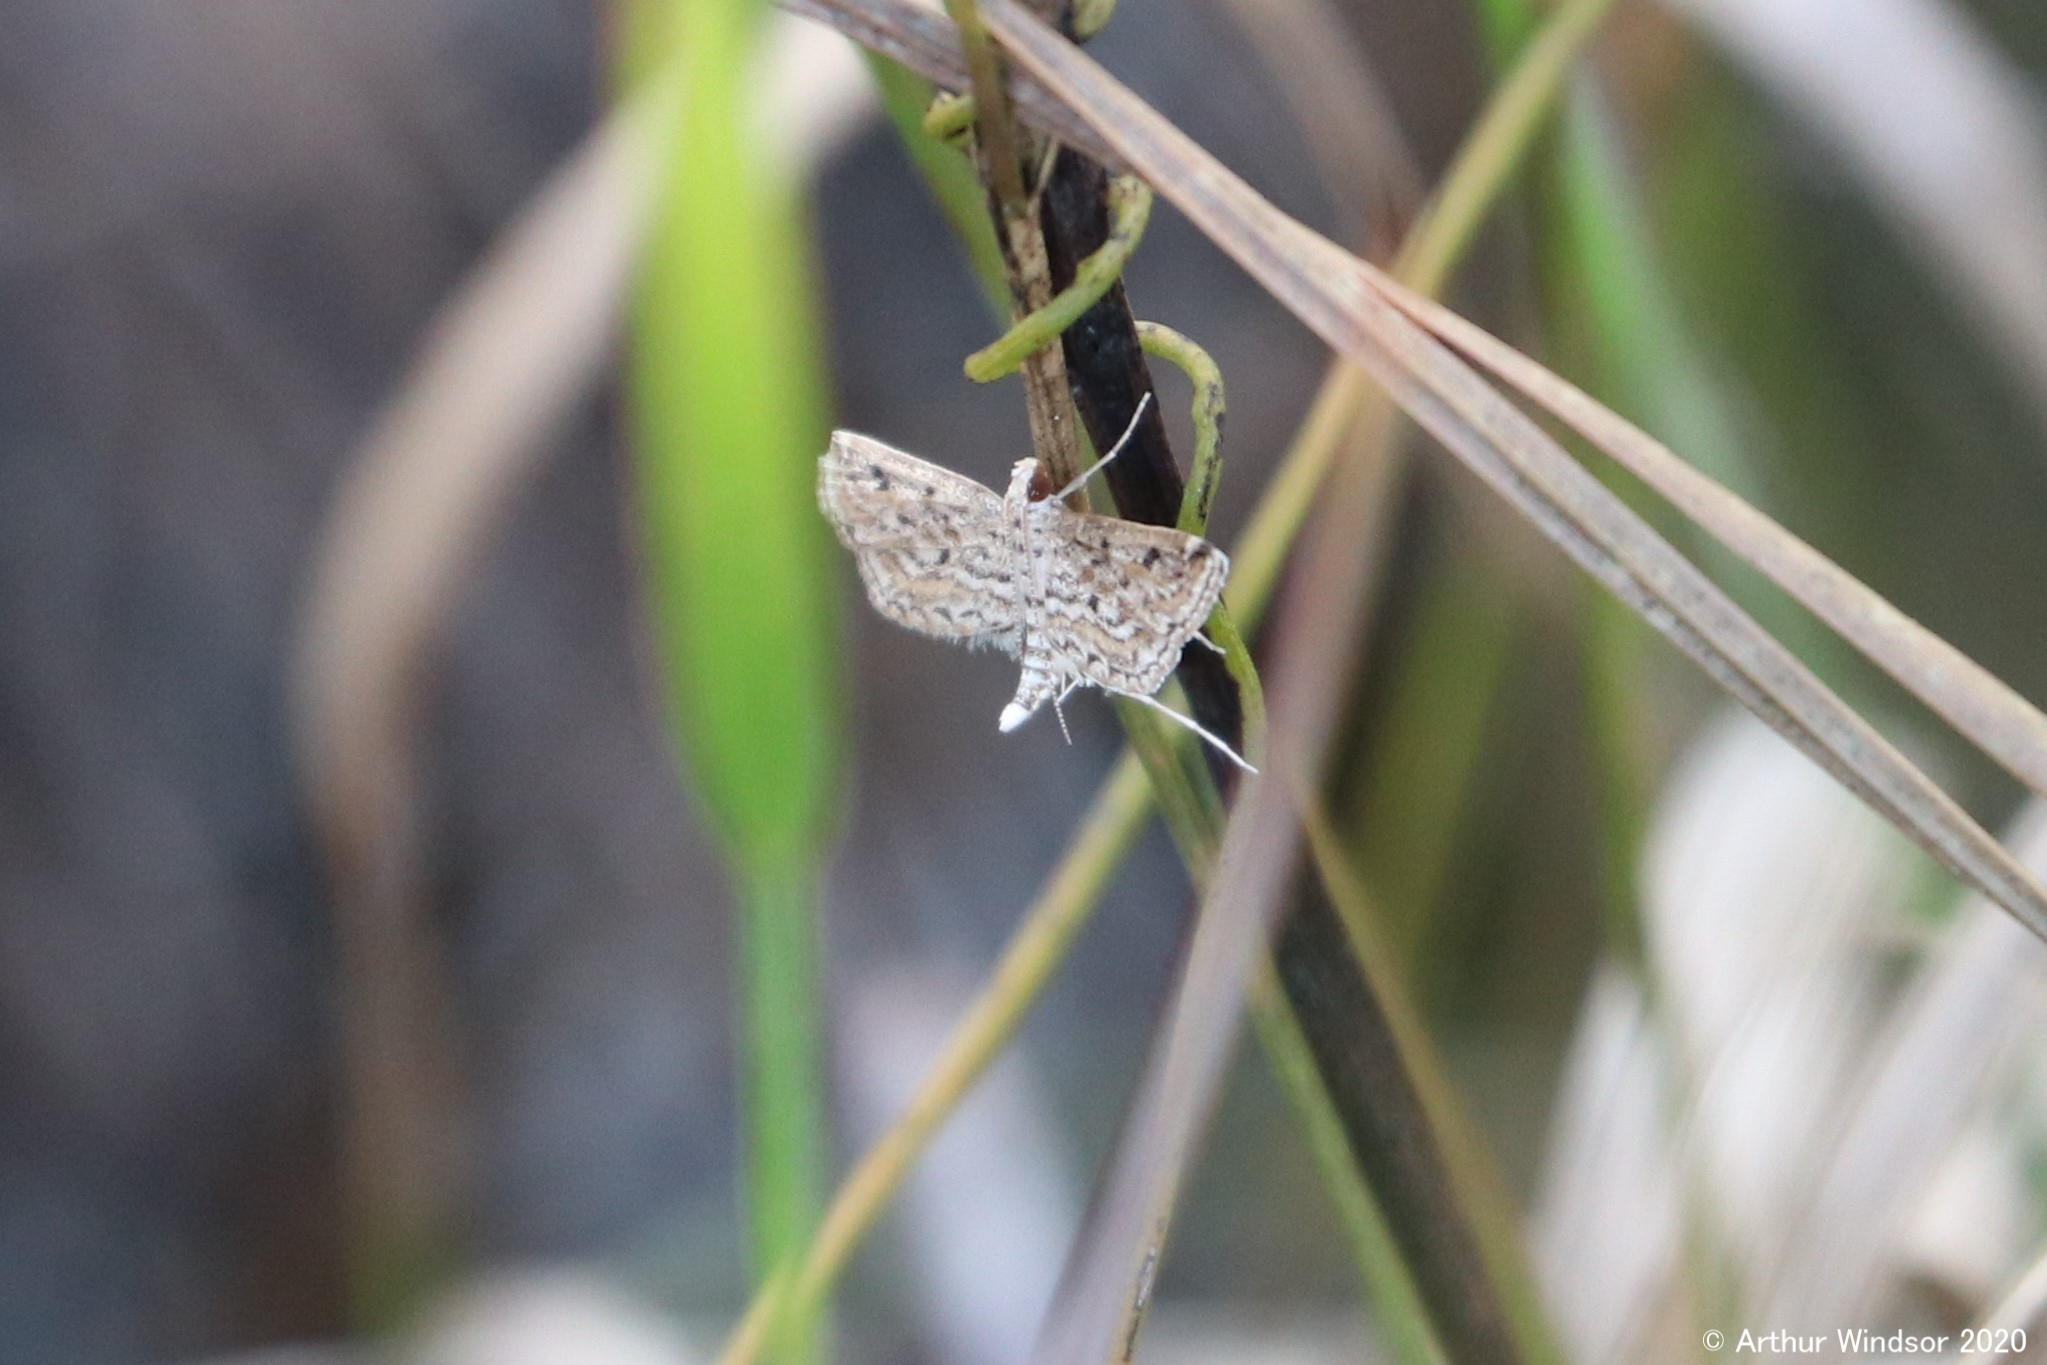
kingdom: Animalia
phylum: Arthropoda
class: Insecta
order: Lepidoptera
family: Crambidae
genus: Parapoynx
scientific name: Parapoynx allionealis
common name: Bladderwort casemaker
